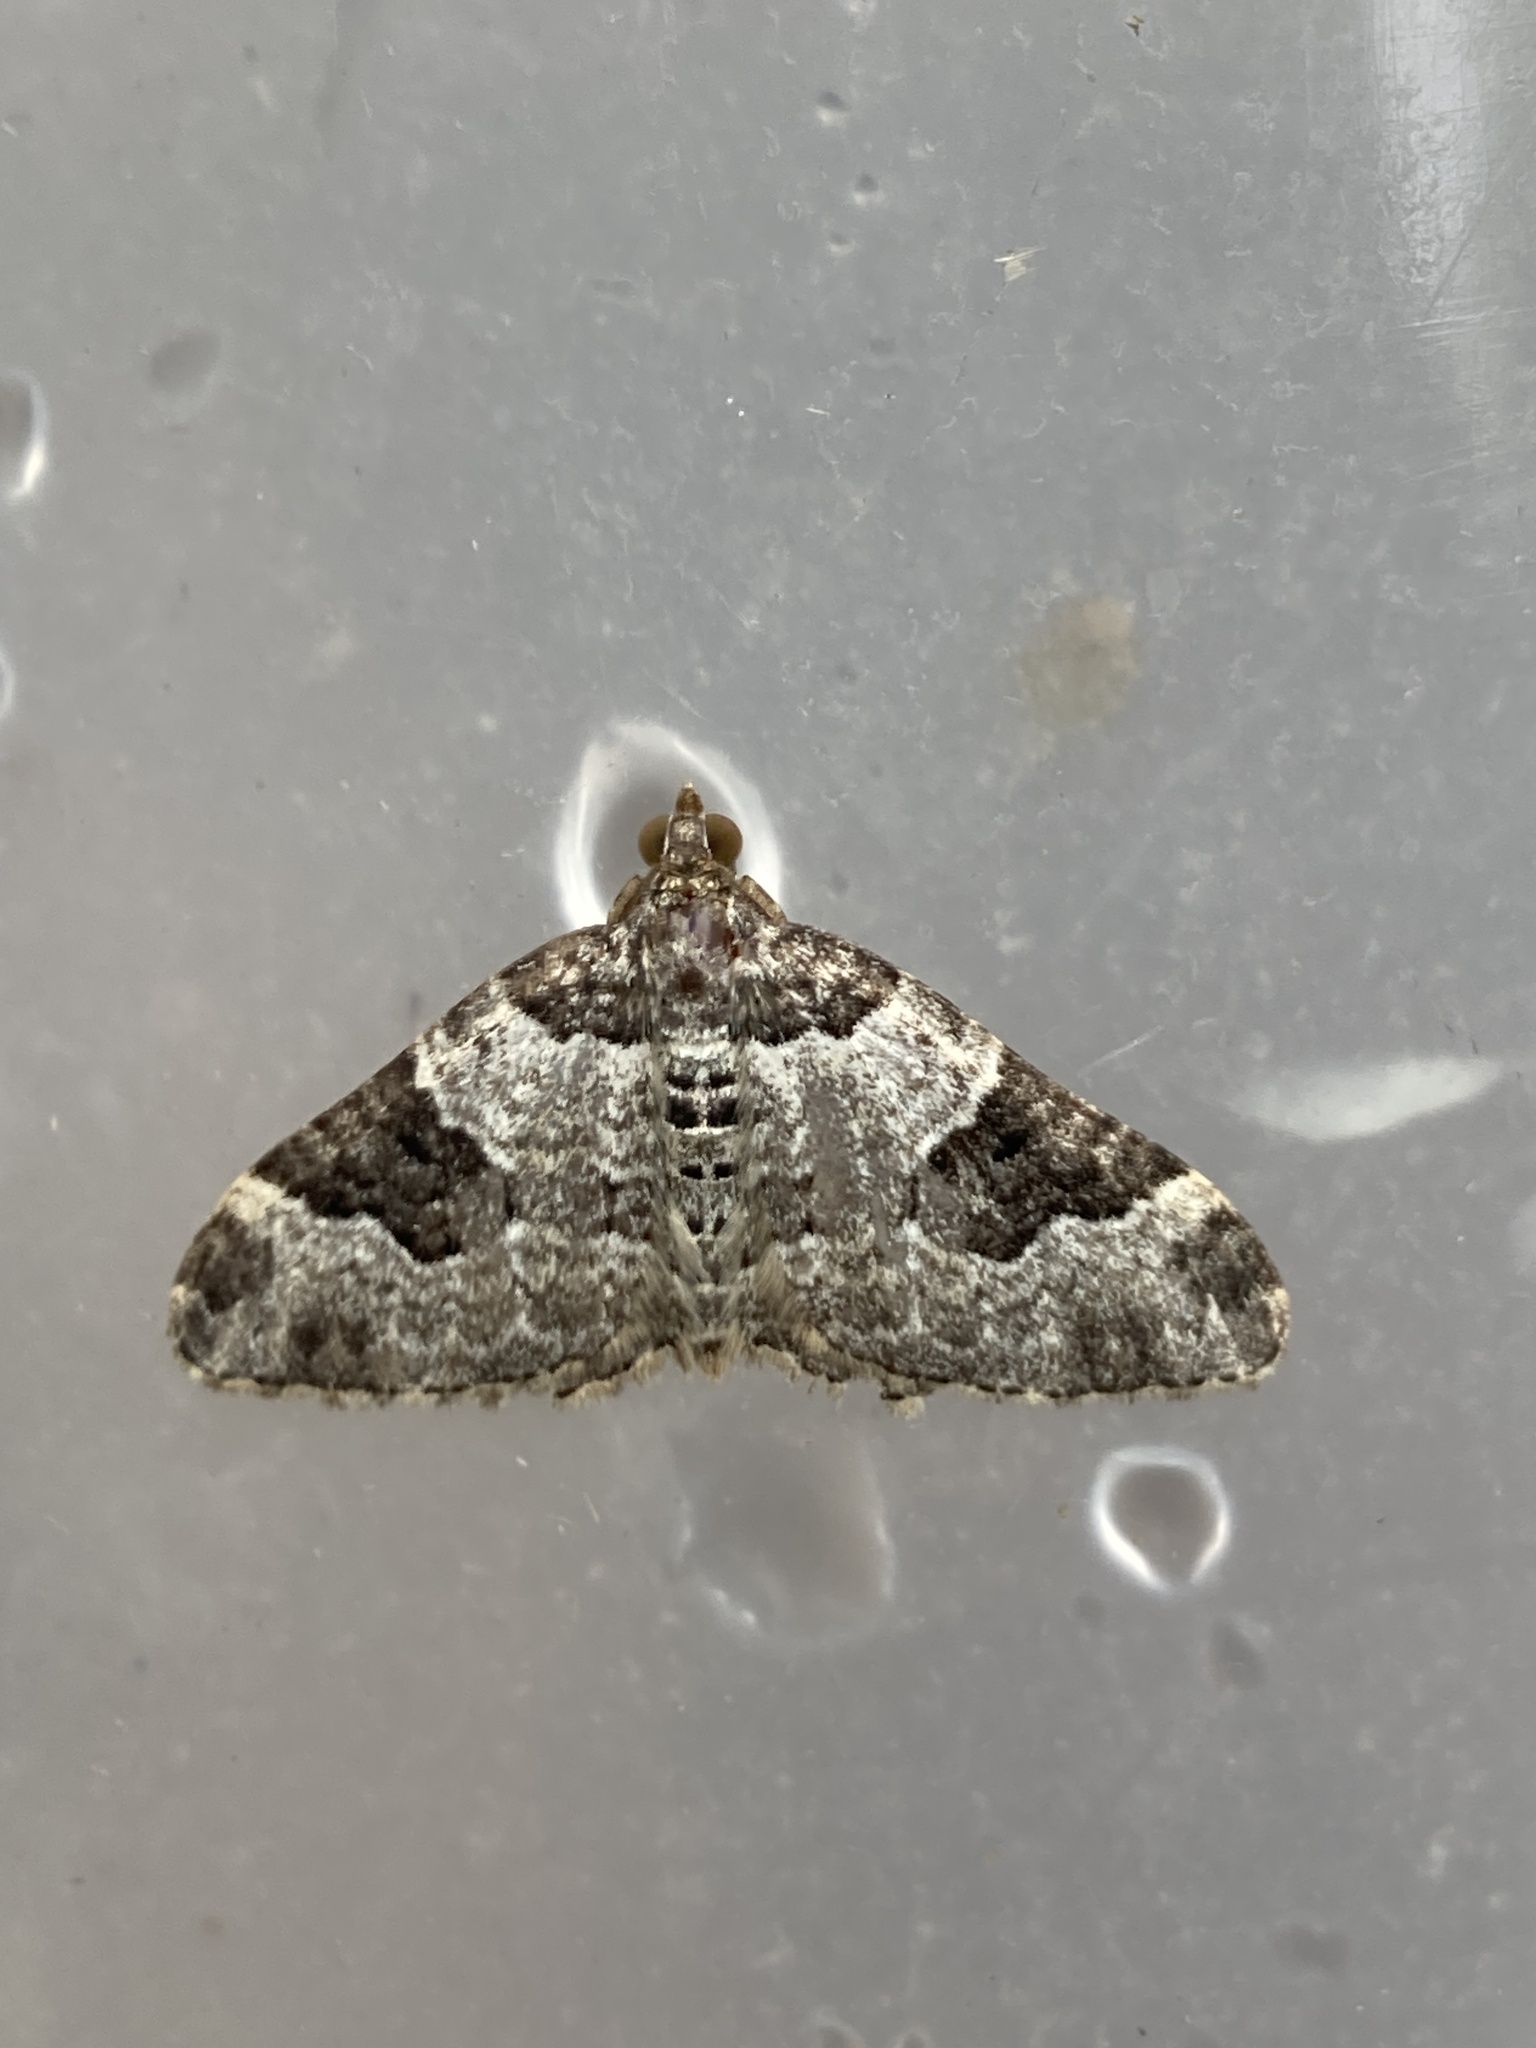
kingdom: Animalia
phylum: Arthropoda
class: Insecta
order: Lepidoptera
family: Geometridae
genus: Xanthorhoe
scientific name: Xanthorhoe fluctuata
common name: Garden carpet
